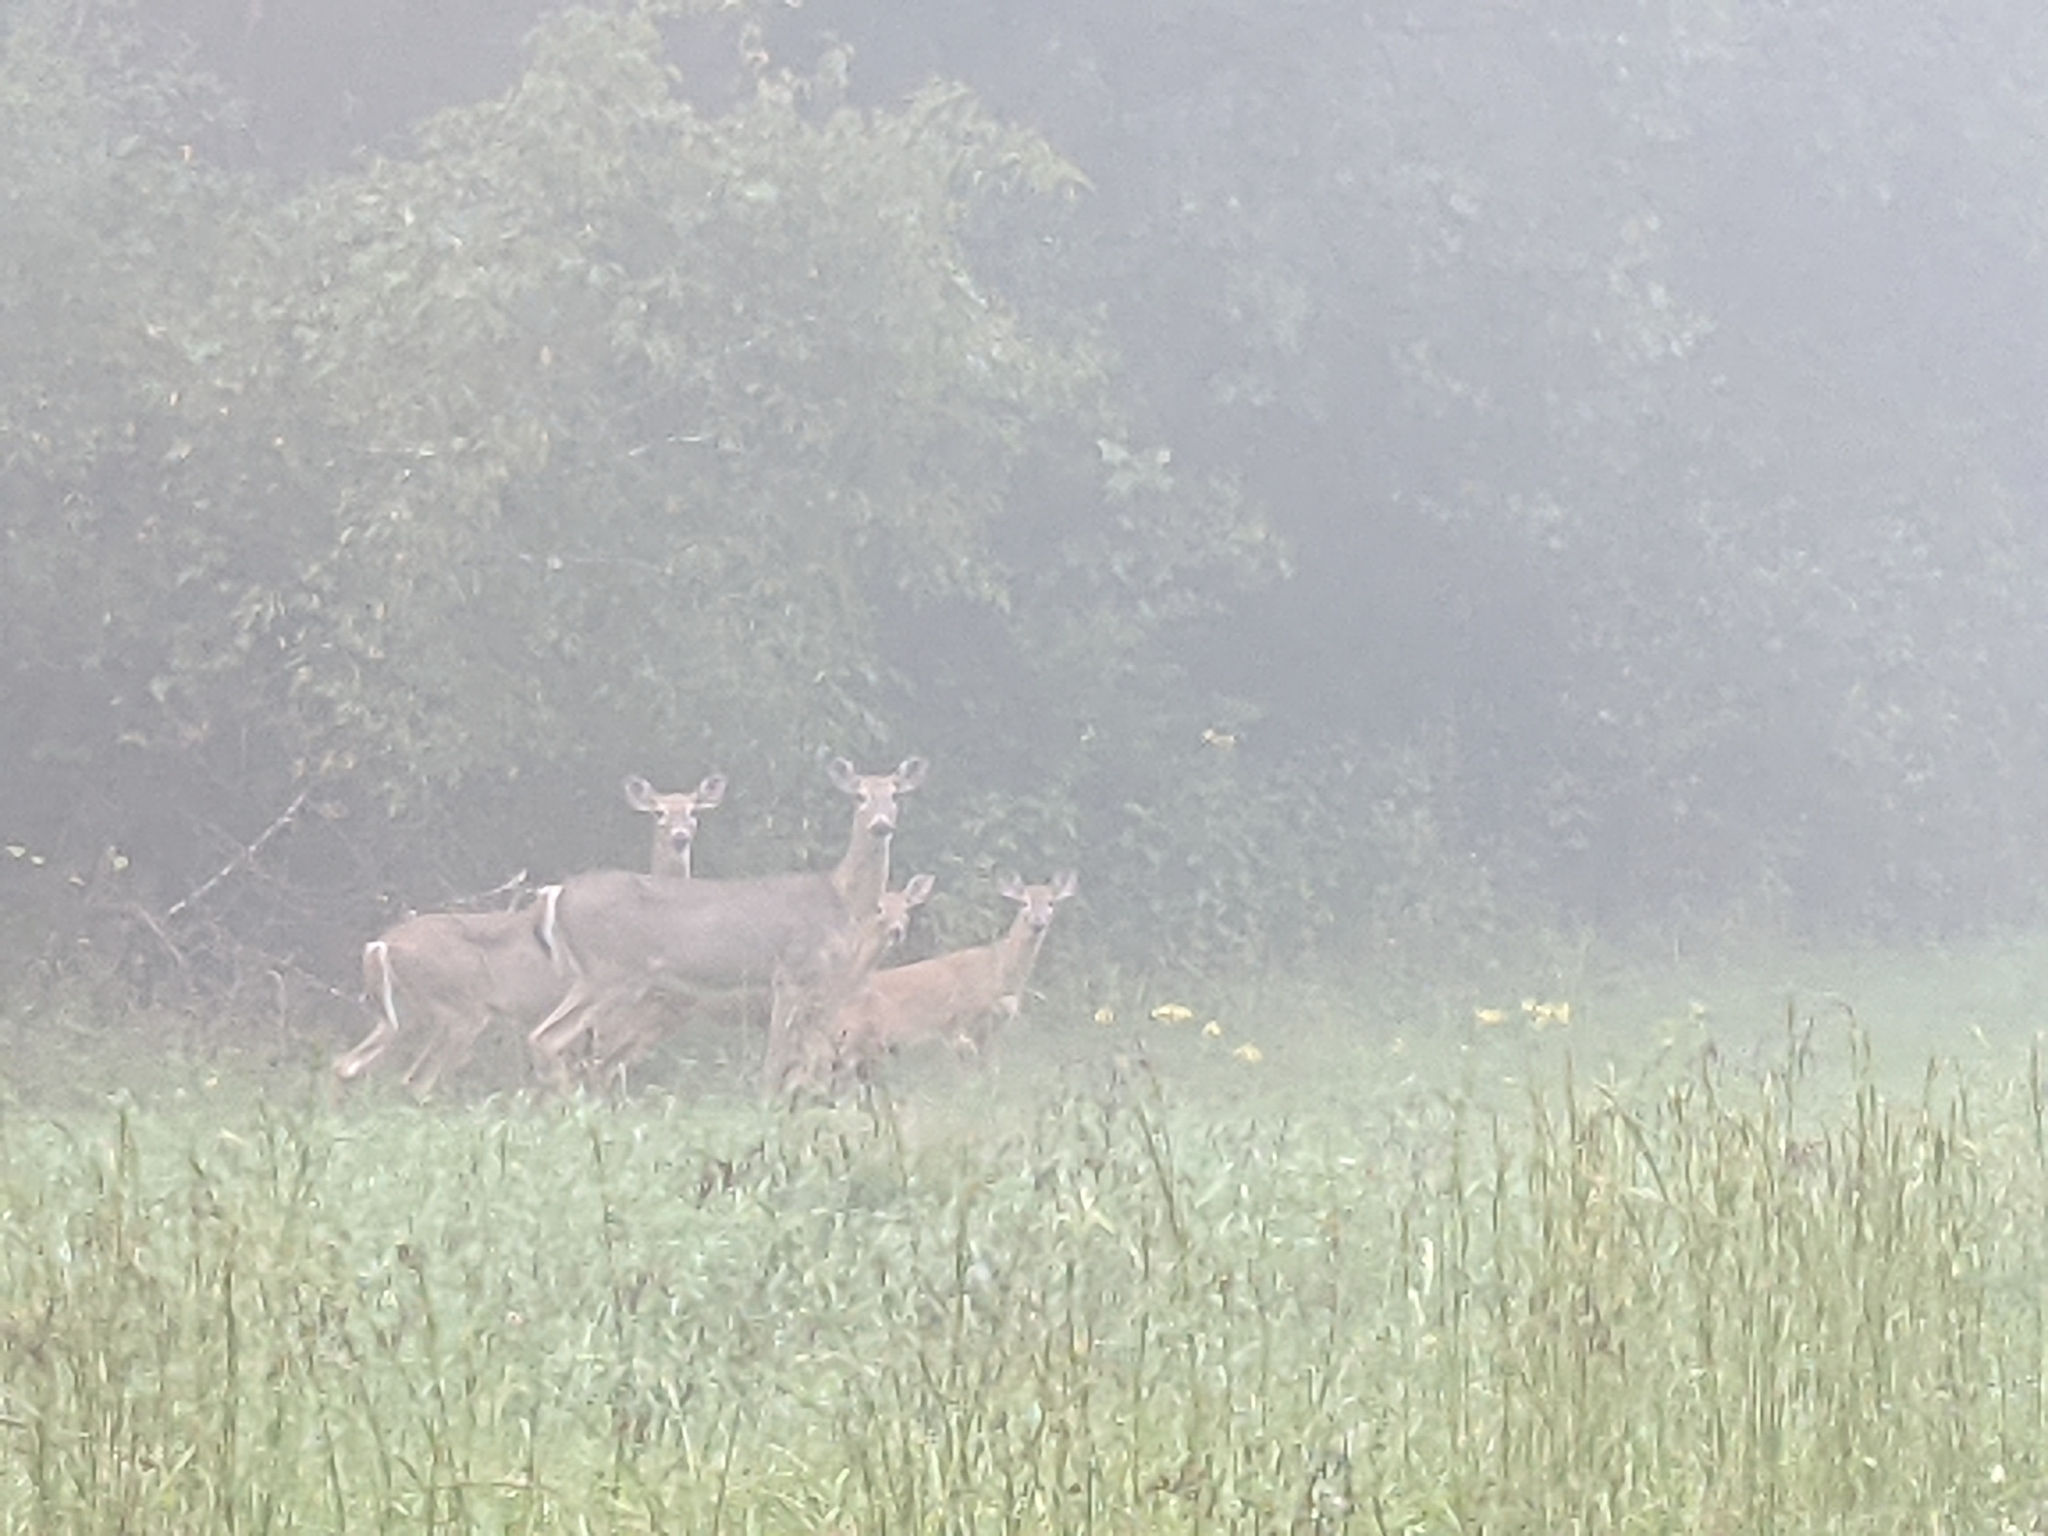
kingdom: Animalia
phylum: Chordata
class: Mammalia
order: Artiodactyla
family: Cervidae
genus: Odocoileus
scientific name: Odocoileus virginianus
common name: White-tailed deer
